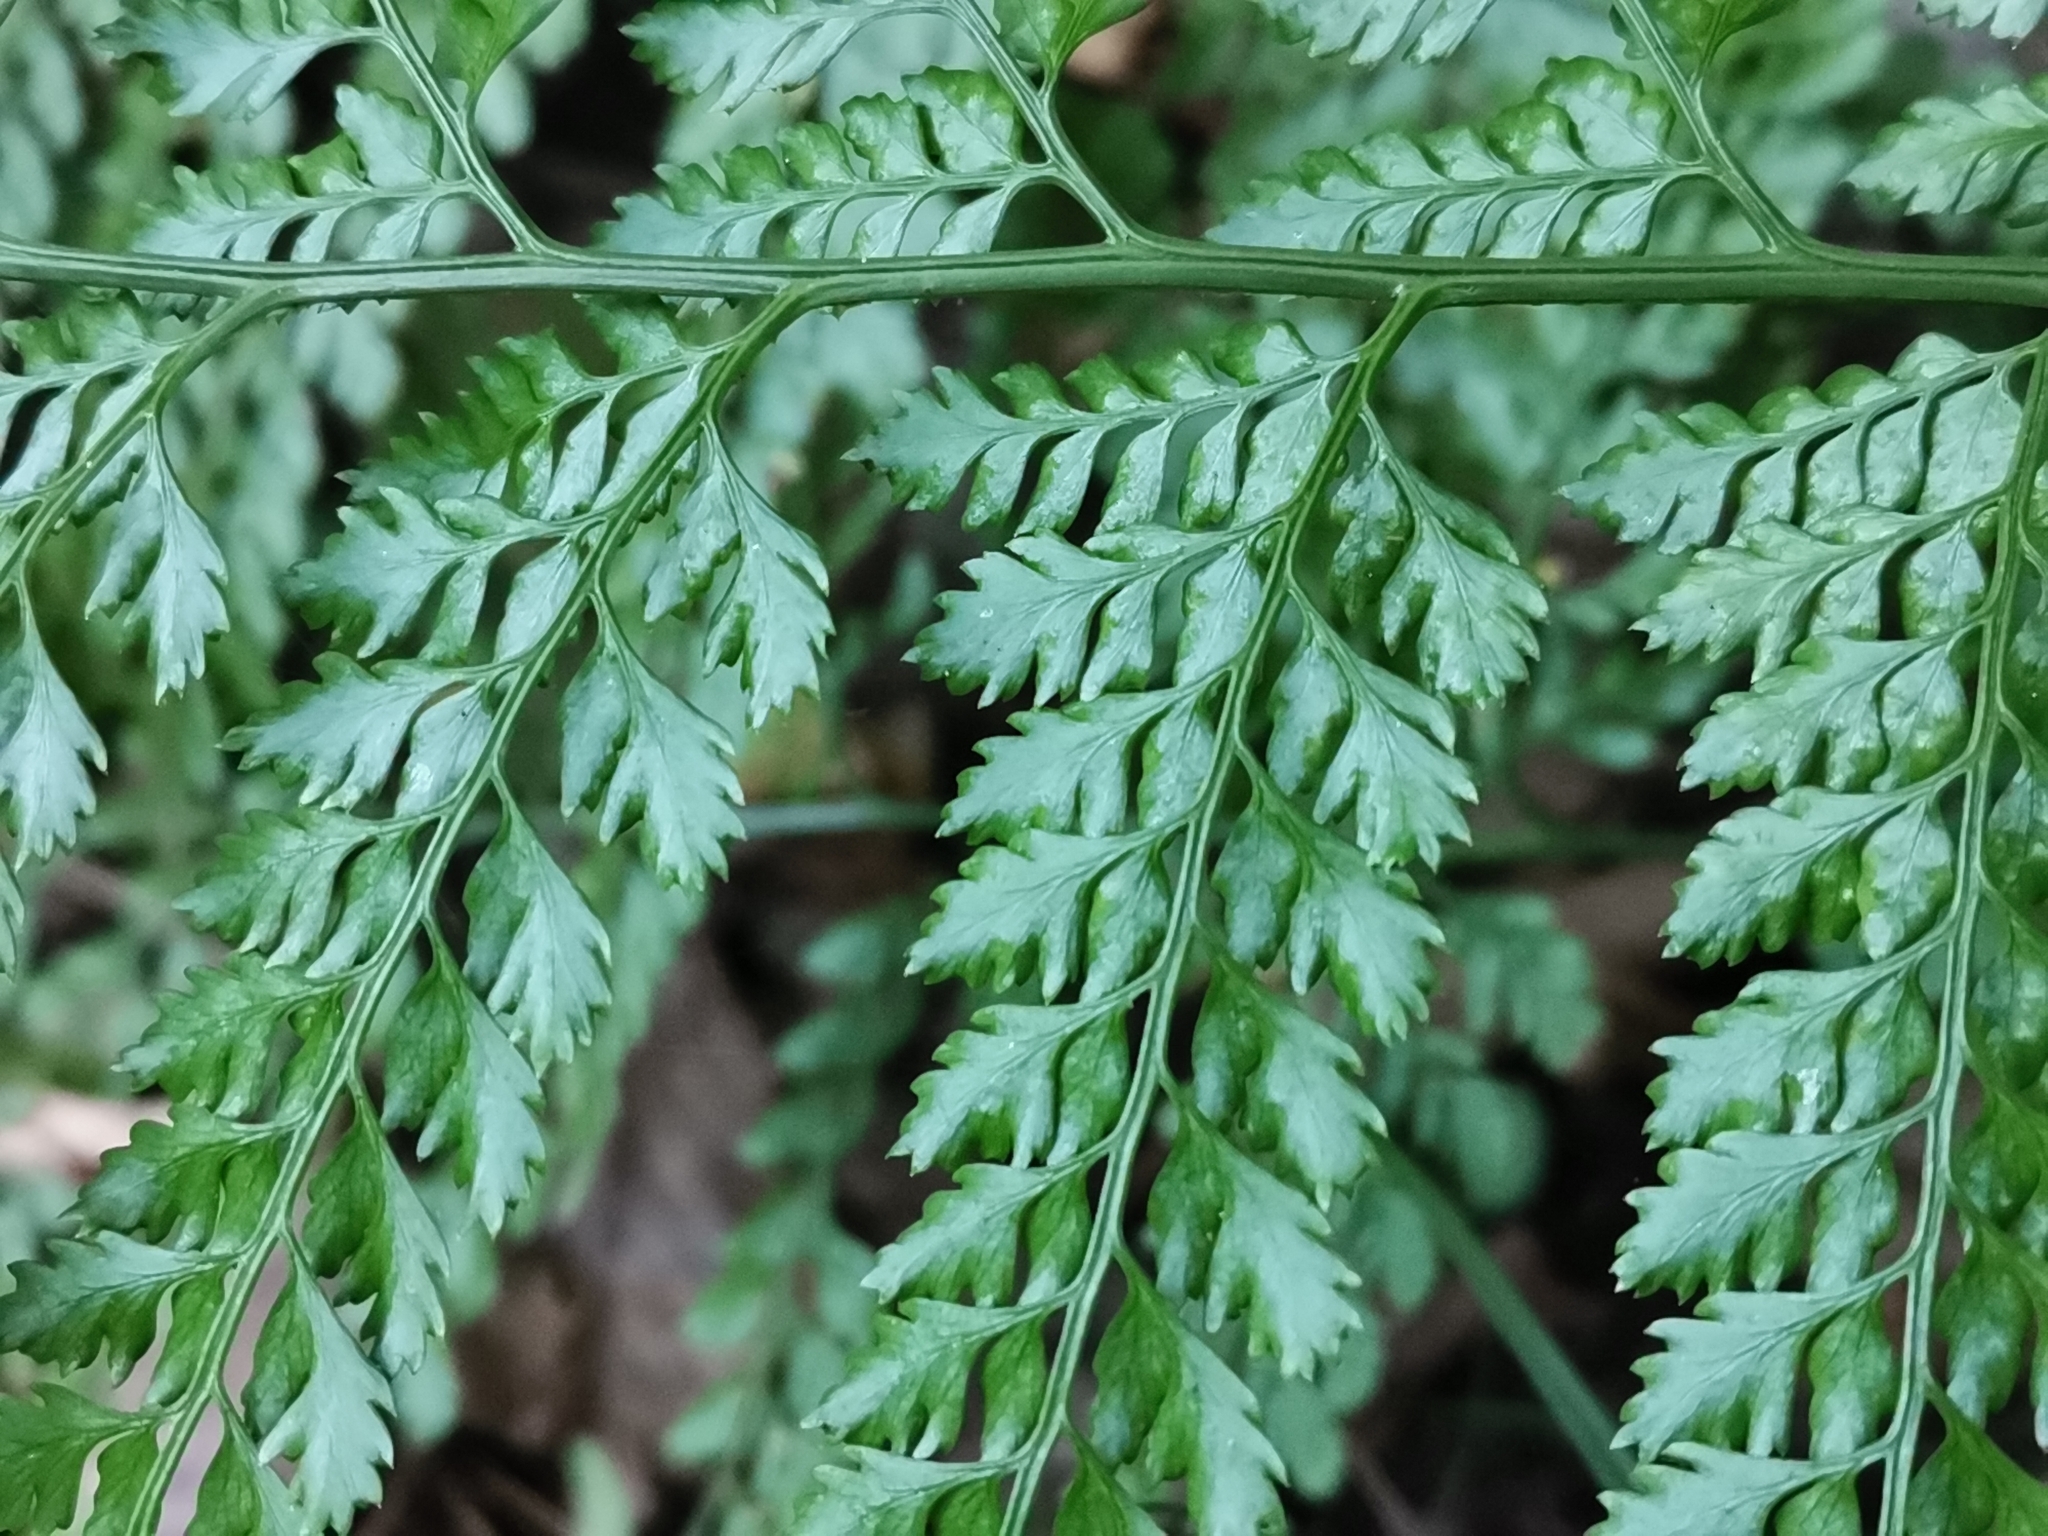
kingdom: Plantae
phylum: Tracheophyta
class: Polypodiopsida
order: Polypodiales
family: Dryopteridaceae
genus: Arachniodes
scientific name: Arachniodes standishii
